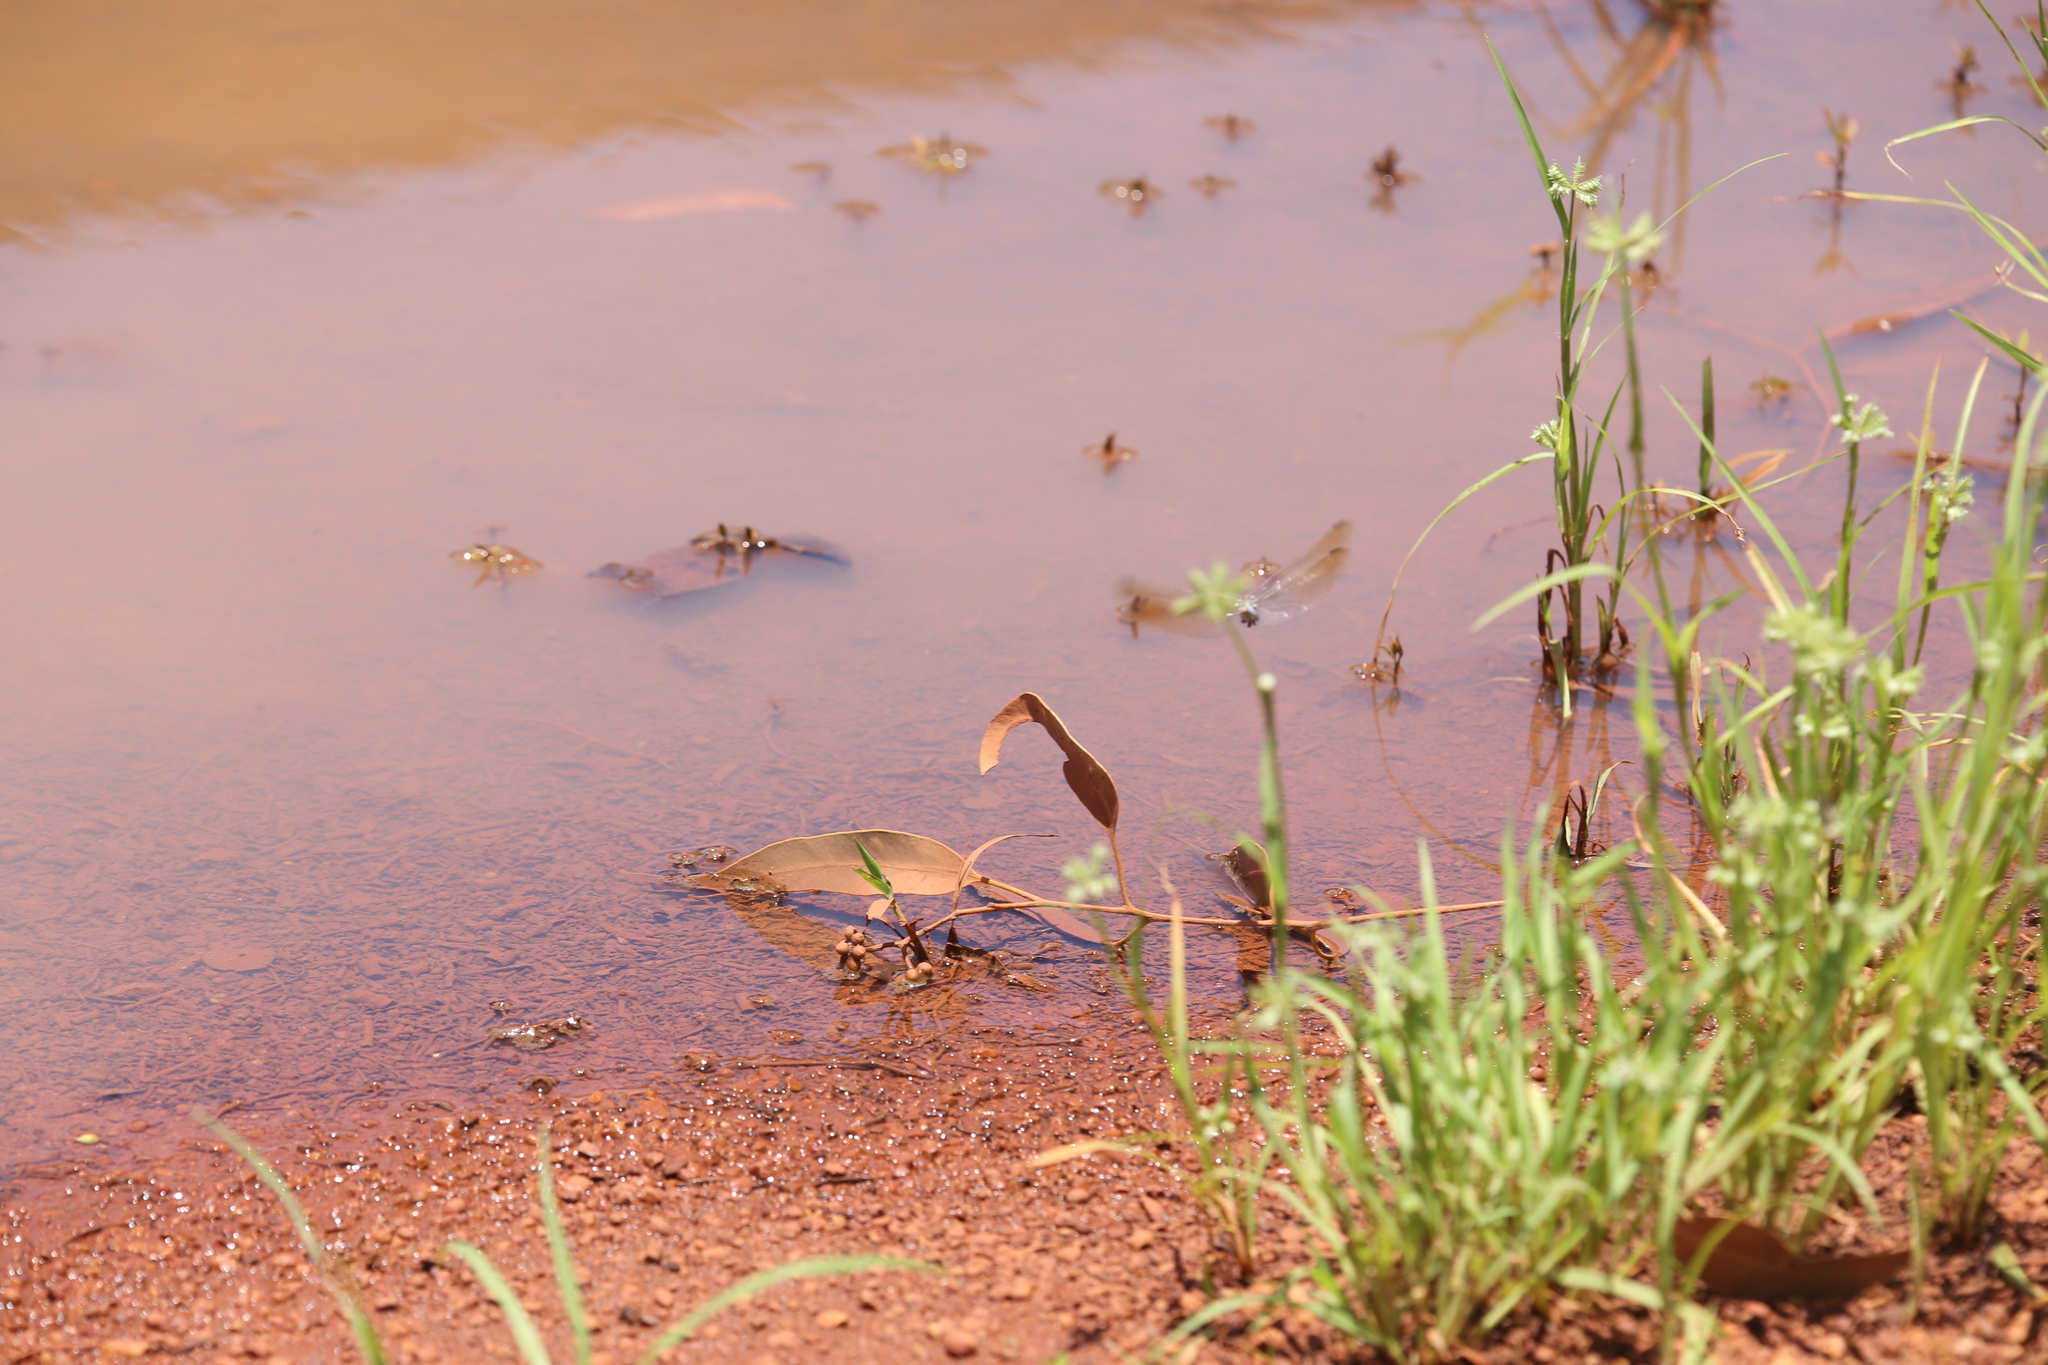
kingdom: Animalia
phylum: Arthropoda
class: Insecta
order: Odonata
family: Libellulidae
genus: Orthetrum
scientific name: Orthetrum caledonicum
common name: Blue skimmer
